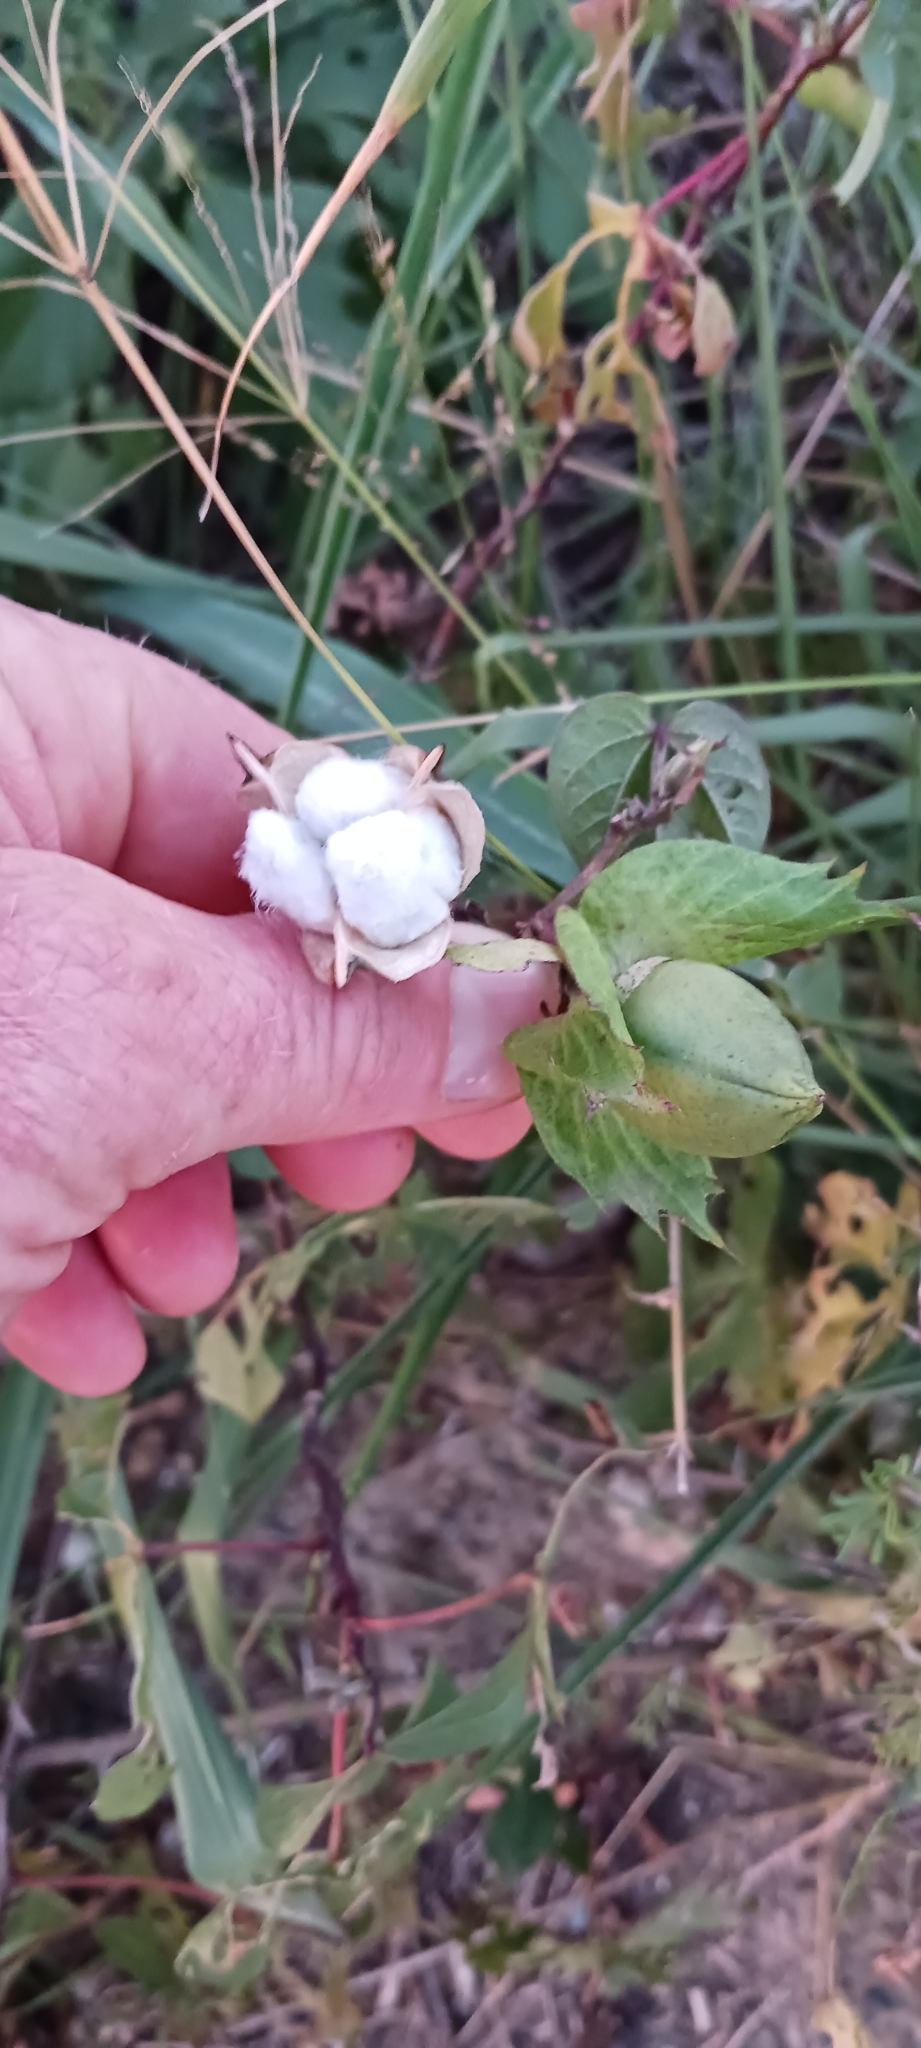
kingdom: Plantae
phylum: Tracheophyta
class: Magnoliopsida
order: Malvales
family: Malvaceae
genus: Gossypium
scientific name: Gossypium hirsutum
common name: Cotton
